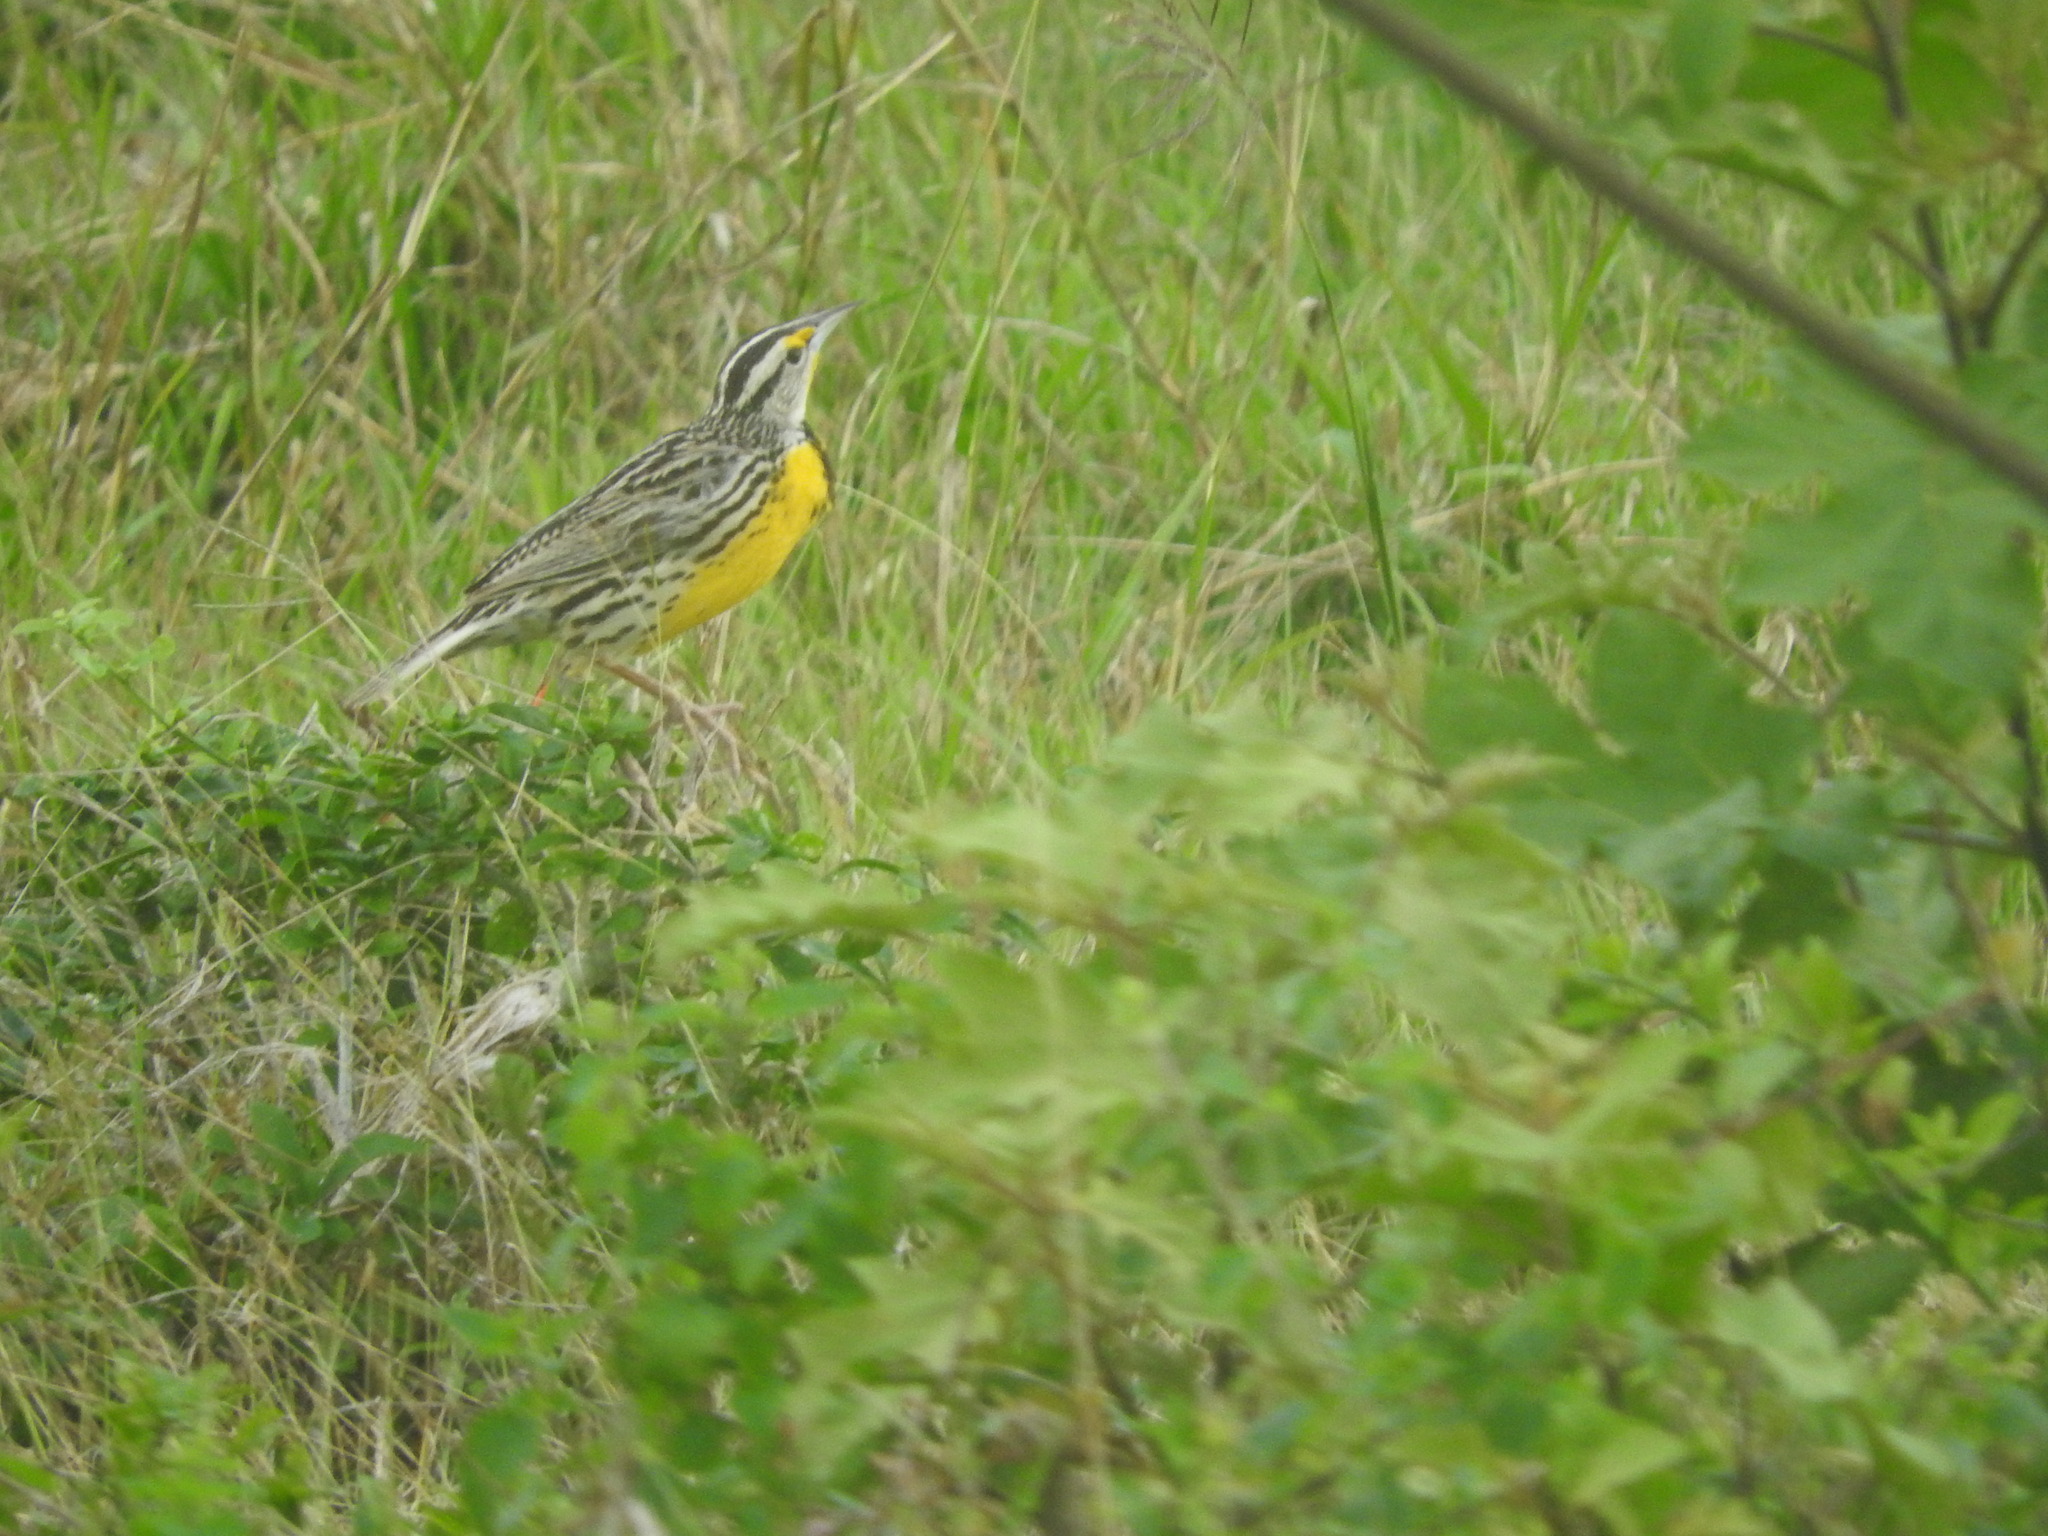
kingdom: Animalia
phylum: Chordata
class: Aves
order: Passeriformes
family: Icteridae
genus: Sturnella
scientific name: Sturnella magna
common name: Eastern meadowlark
